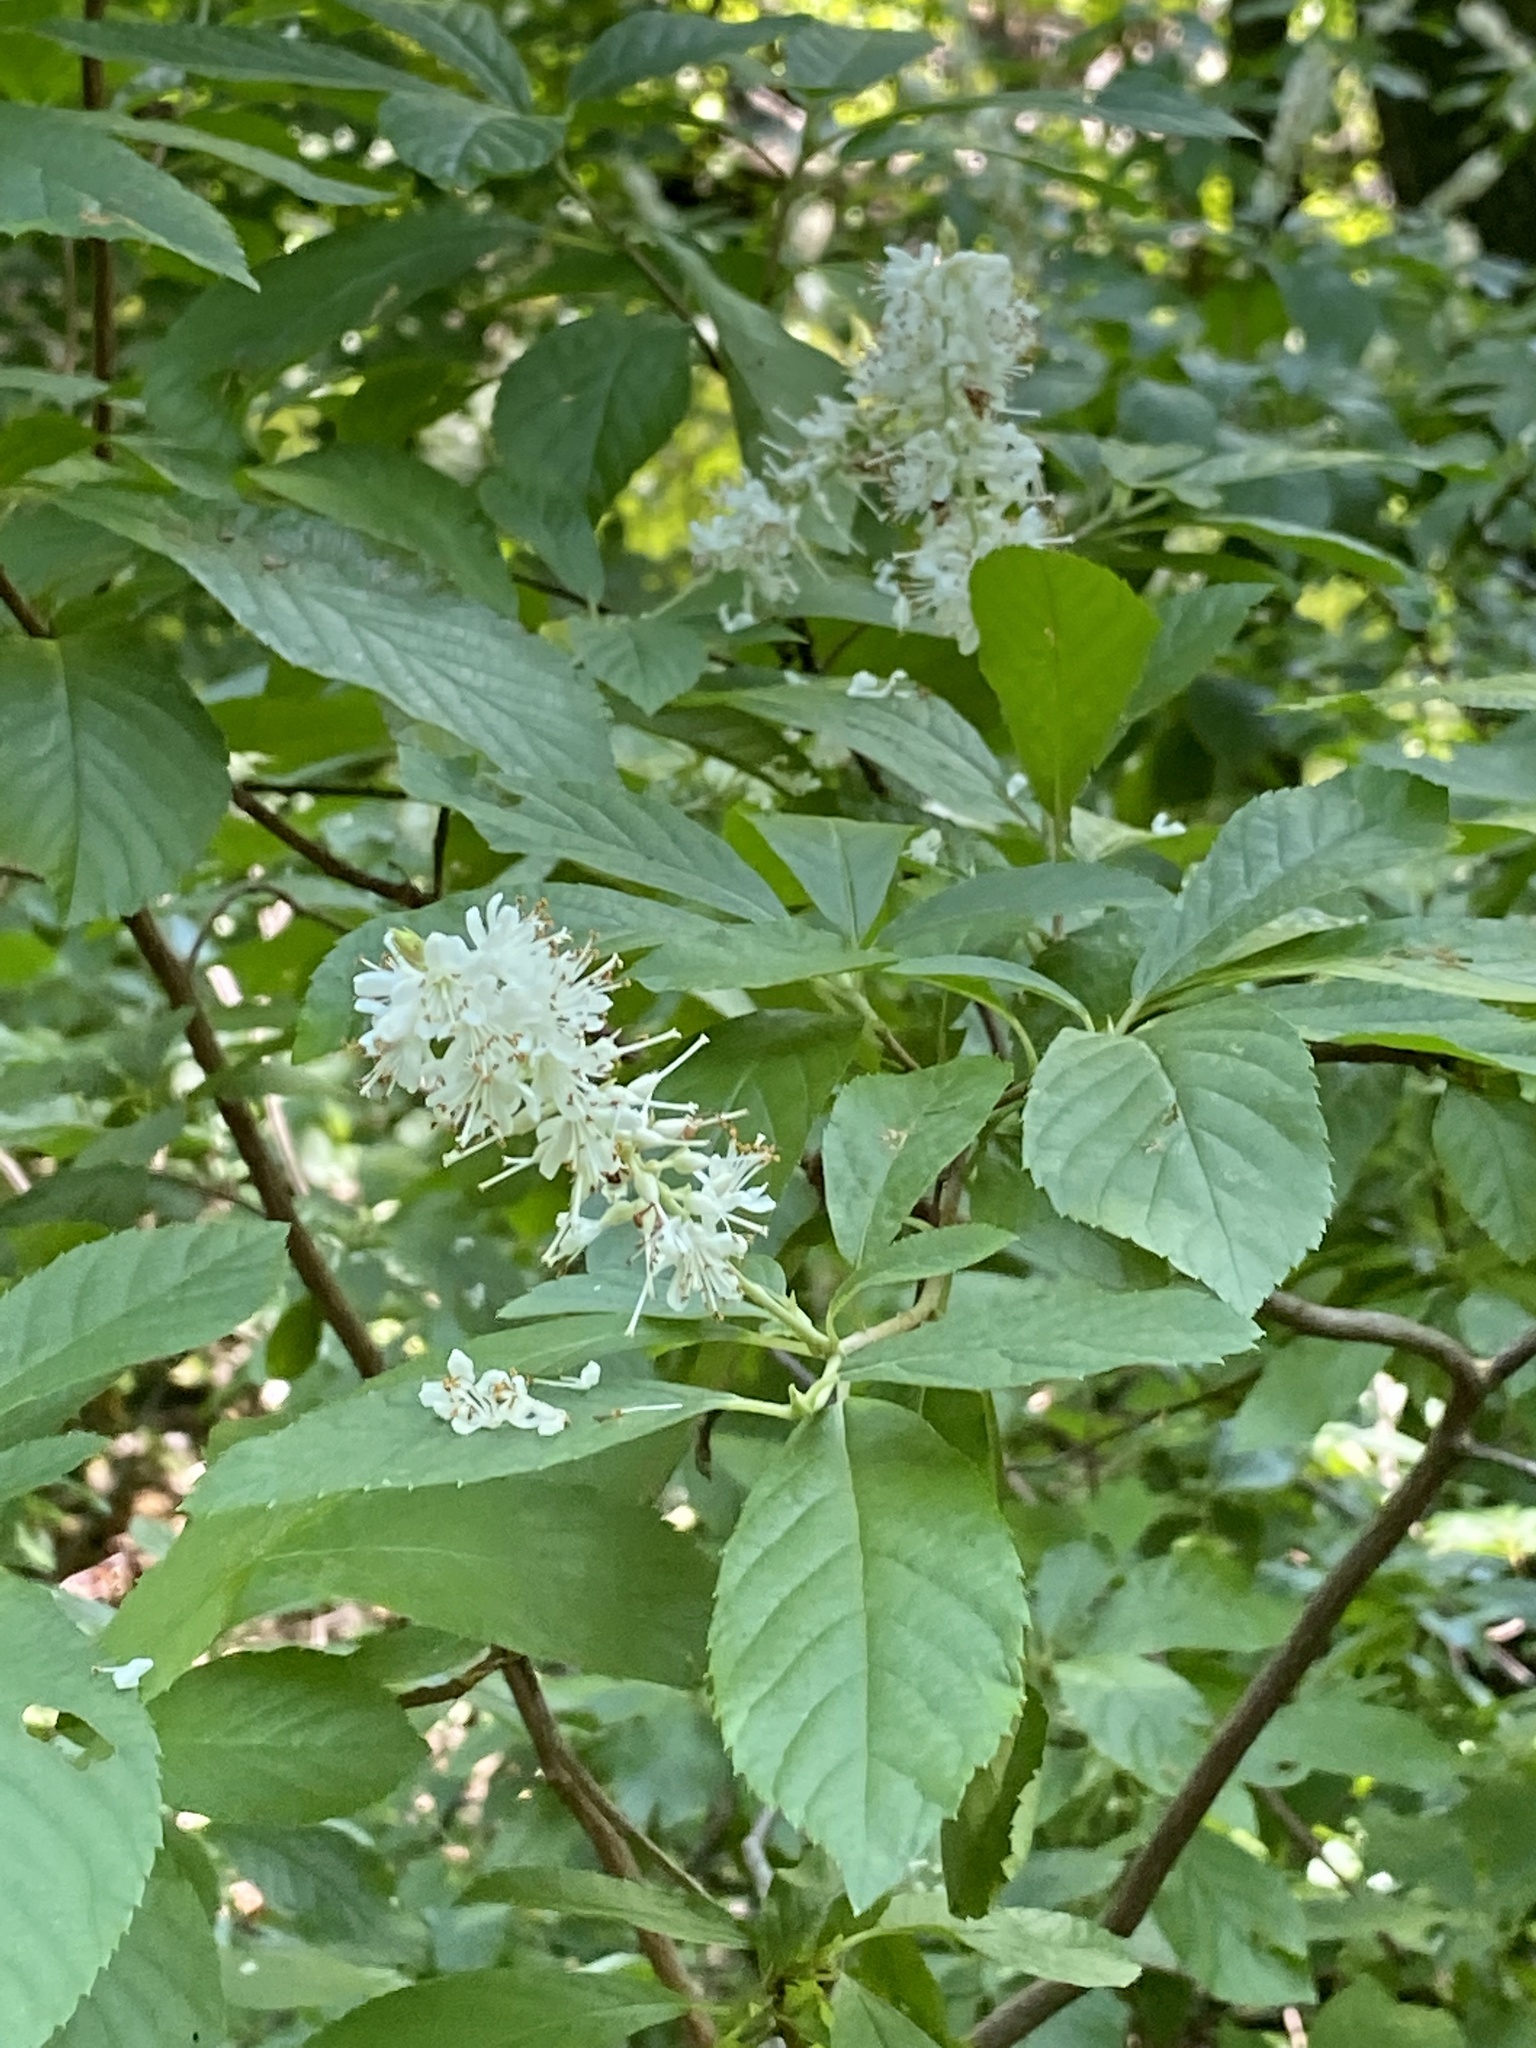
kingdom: Plantae
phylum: Tracheophyta
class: Magnoliopsida
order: Ericales
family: Clethraceae
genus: Clethra
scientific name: Clethra alnifolia
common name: Sweet pepperbush
